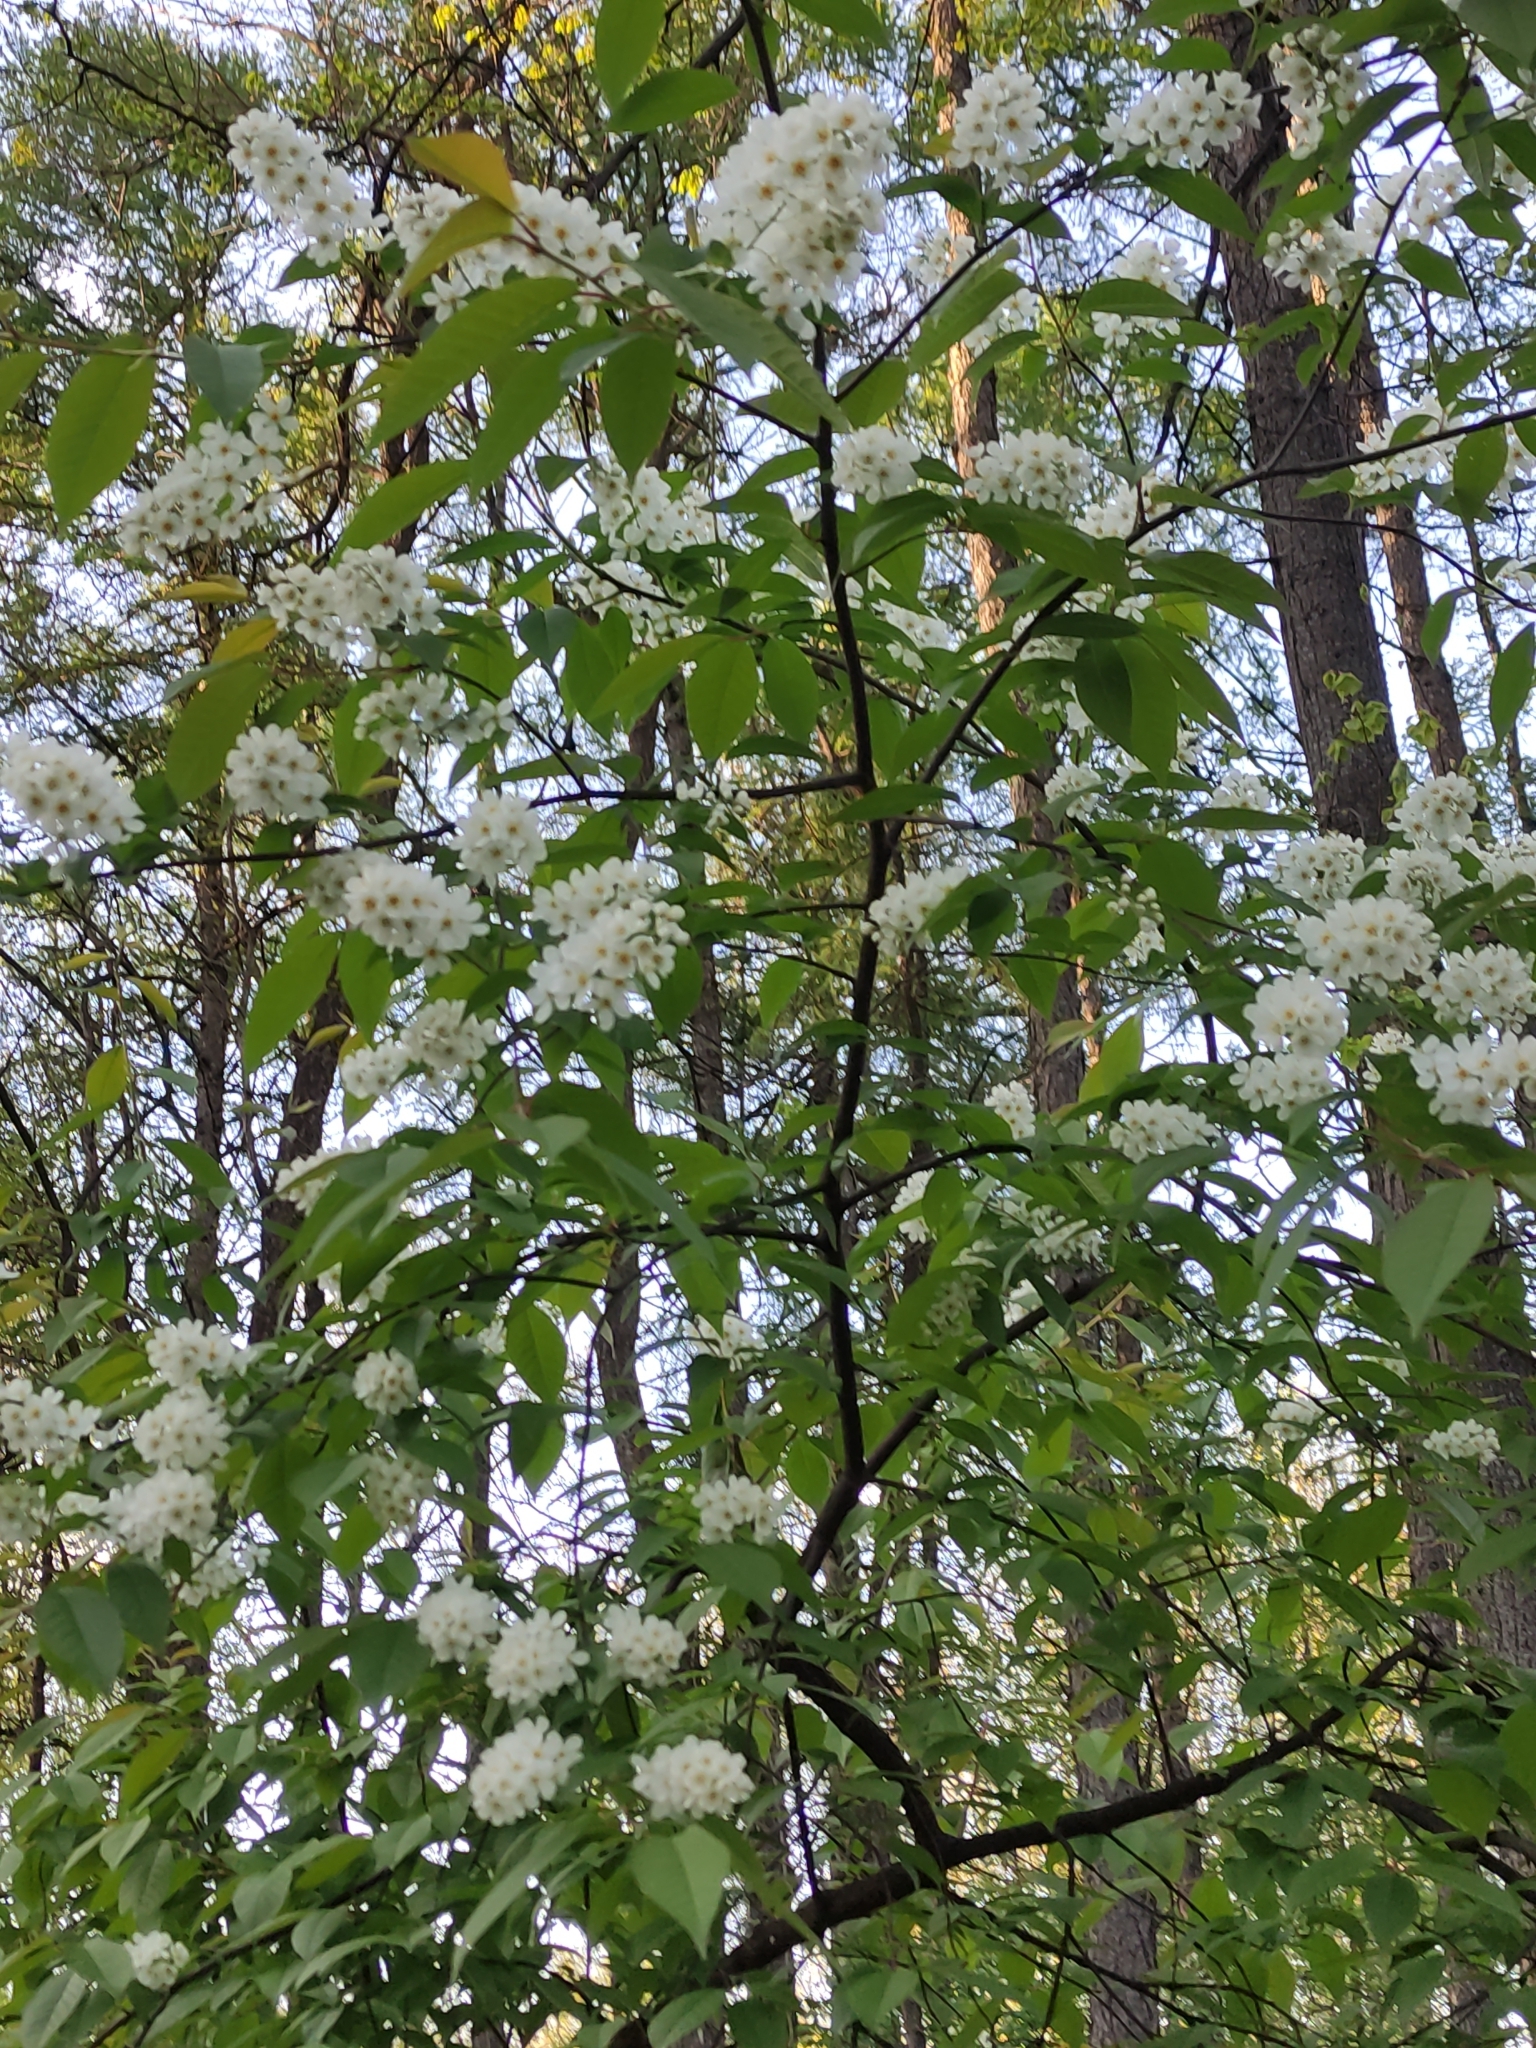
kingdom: Plantae
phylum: Tracheophyta
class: Magnoliopsida
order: Rosales
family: Rosaceae
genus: Prunus
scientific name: Prunus padus
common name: Bird cherry
